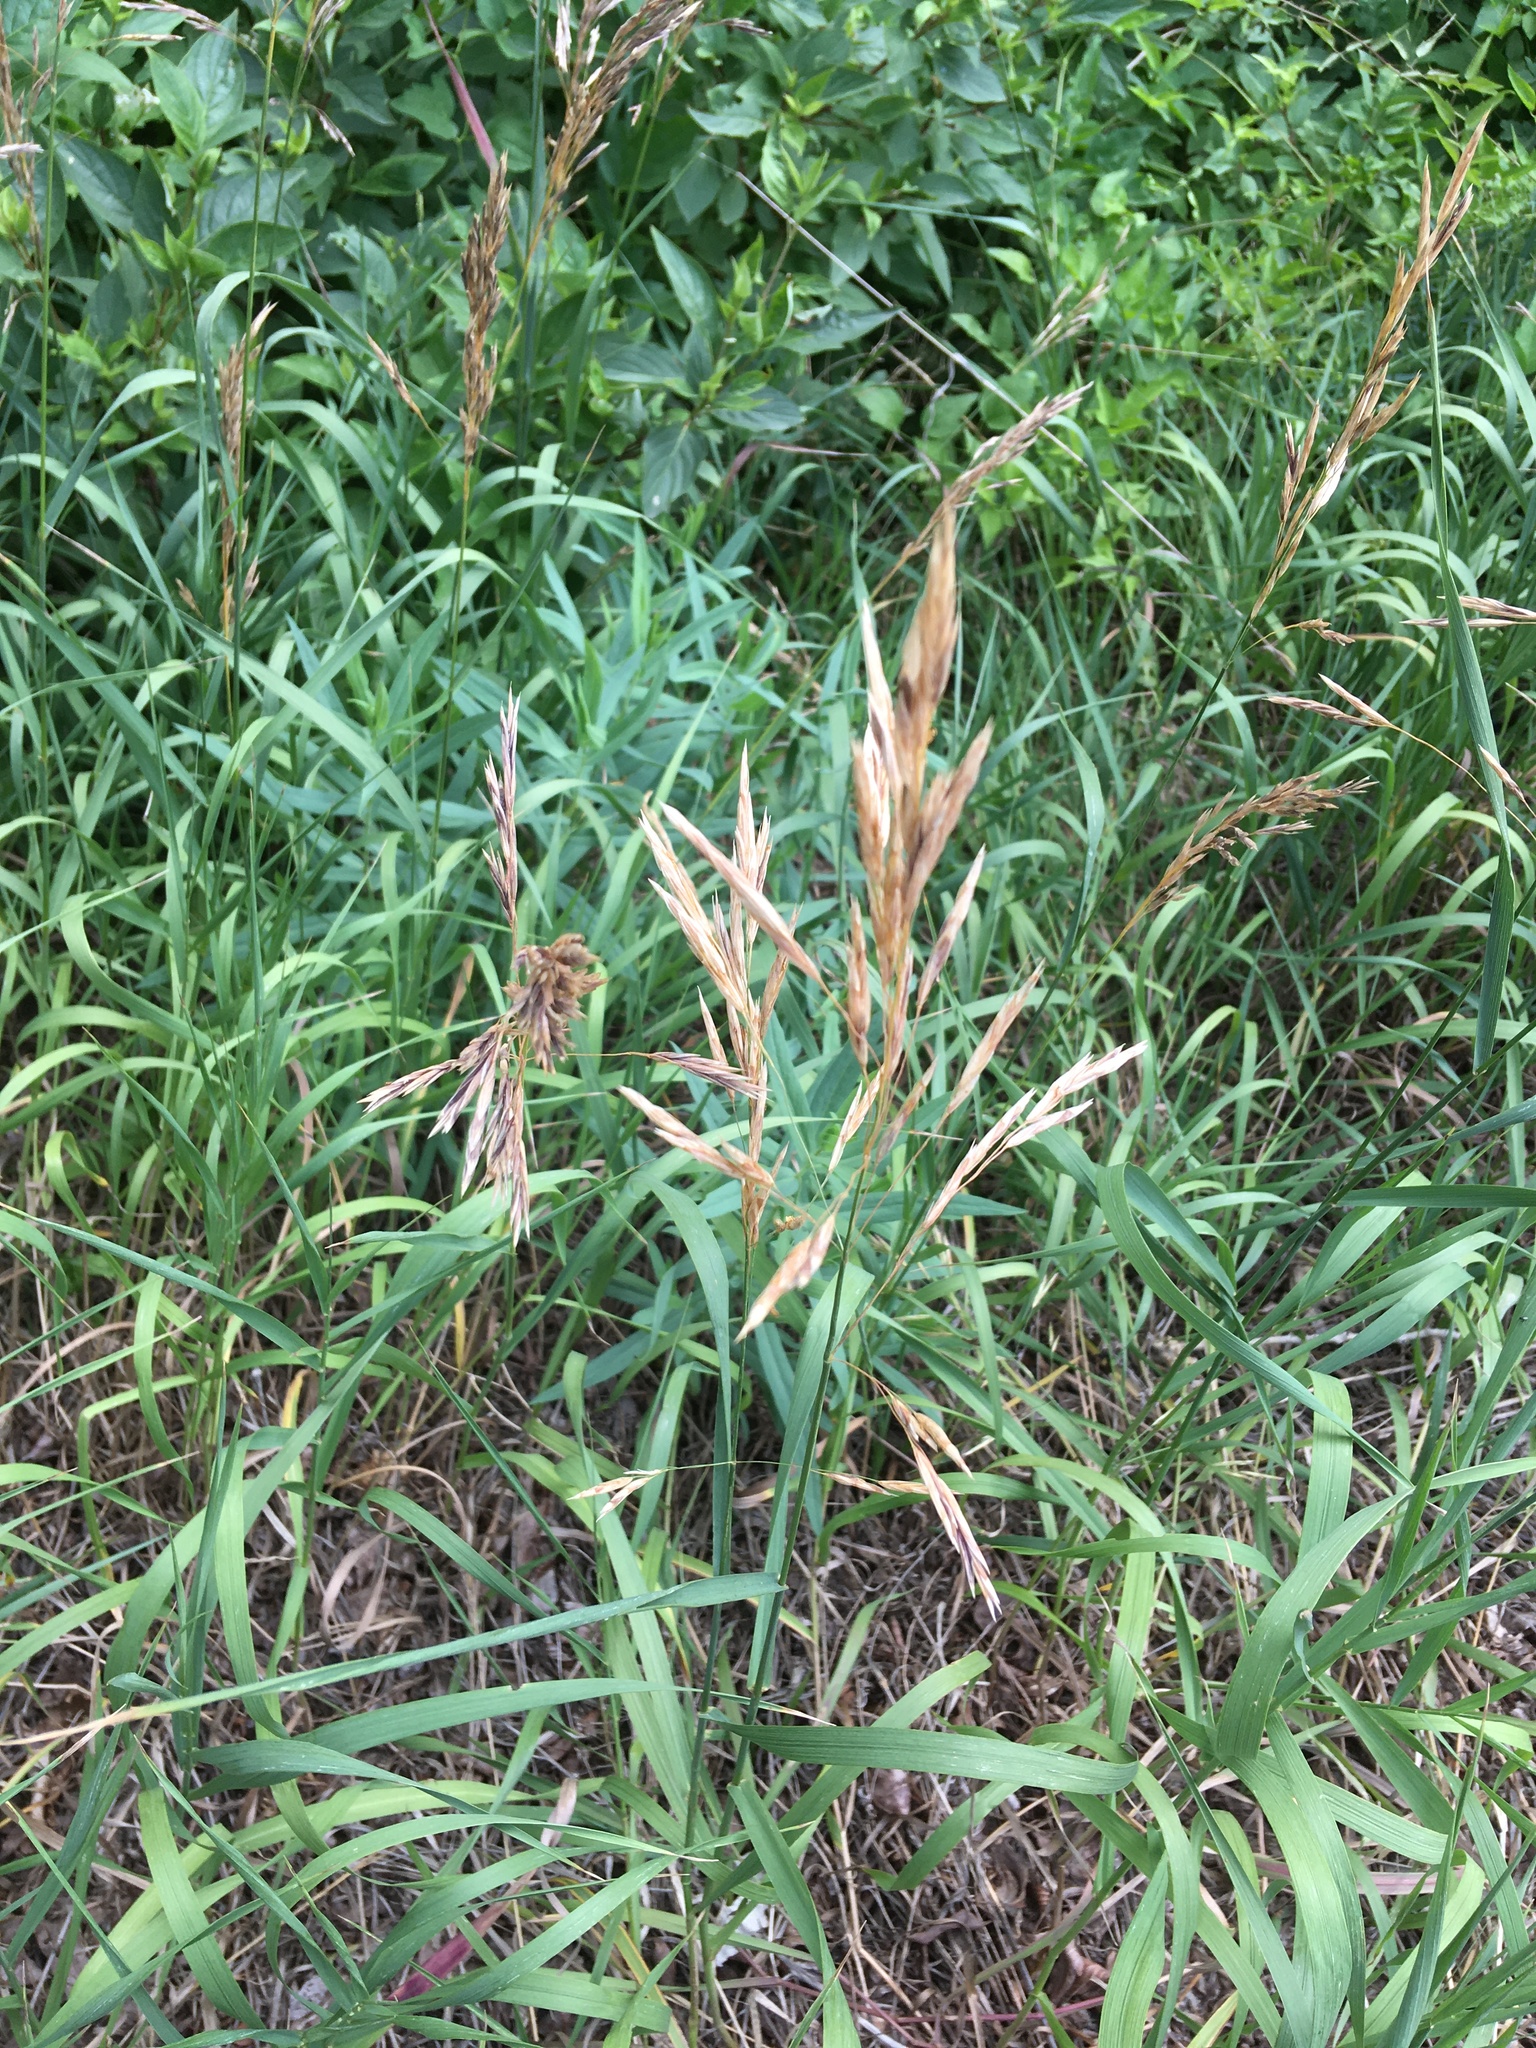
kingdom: Plantae
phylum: Tracheophyta
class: Liliopsida
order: Poales
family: Poaceae
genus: Bromus
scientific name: Bromus inermis
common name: Smooth brome
